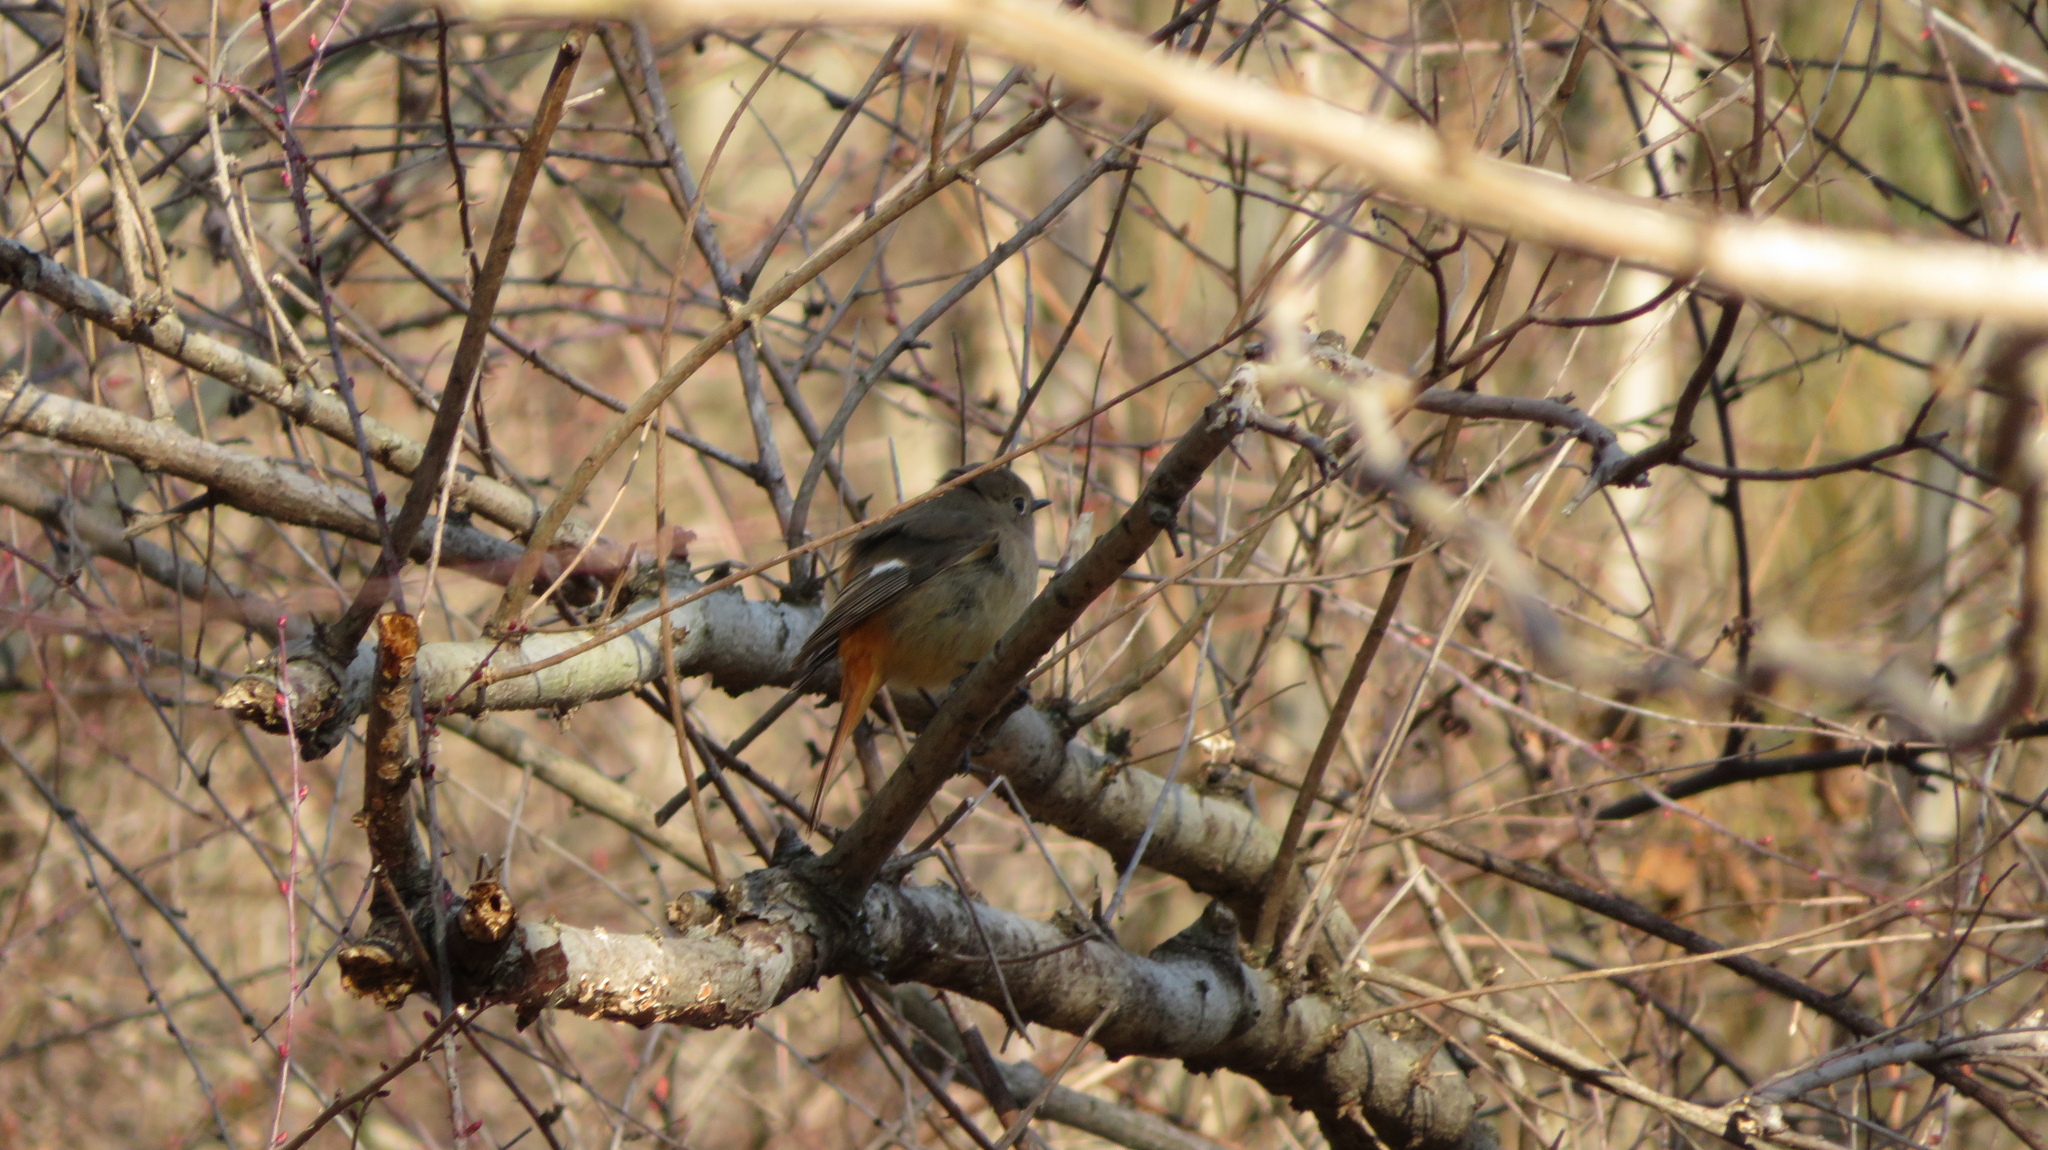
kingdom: Animalia
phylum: Chordata
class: Aves
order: Passeriformes
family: Muscicapidae
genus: Phoenicurus
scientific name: Phoenicurus auroreus
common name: Daurian redstart
